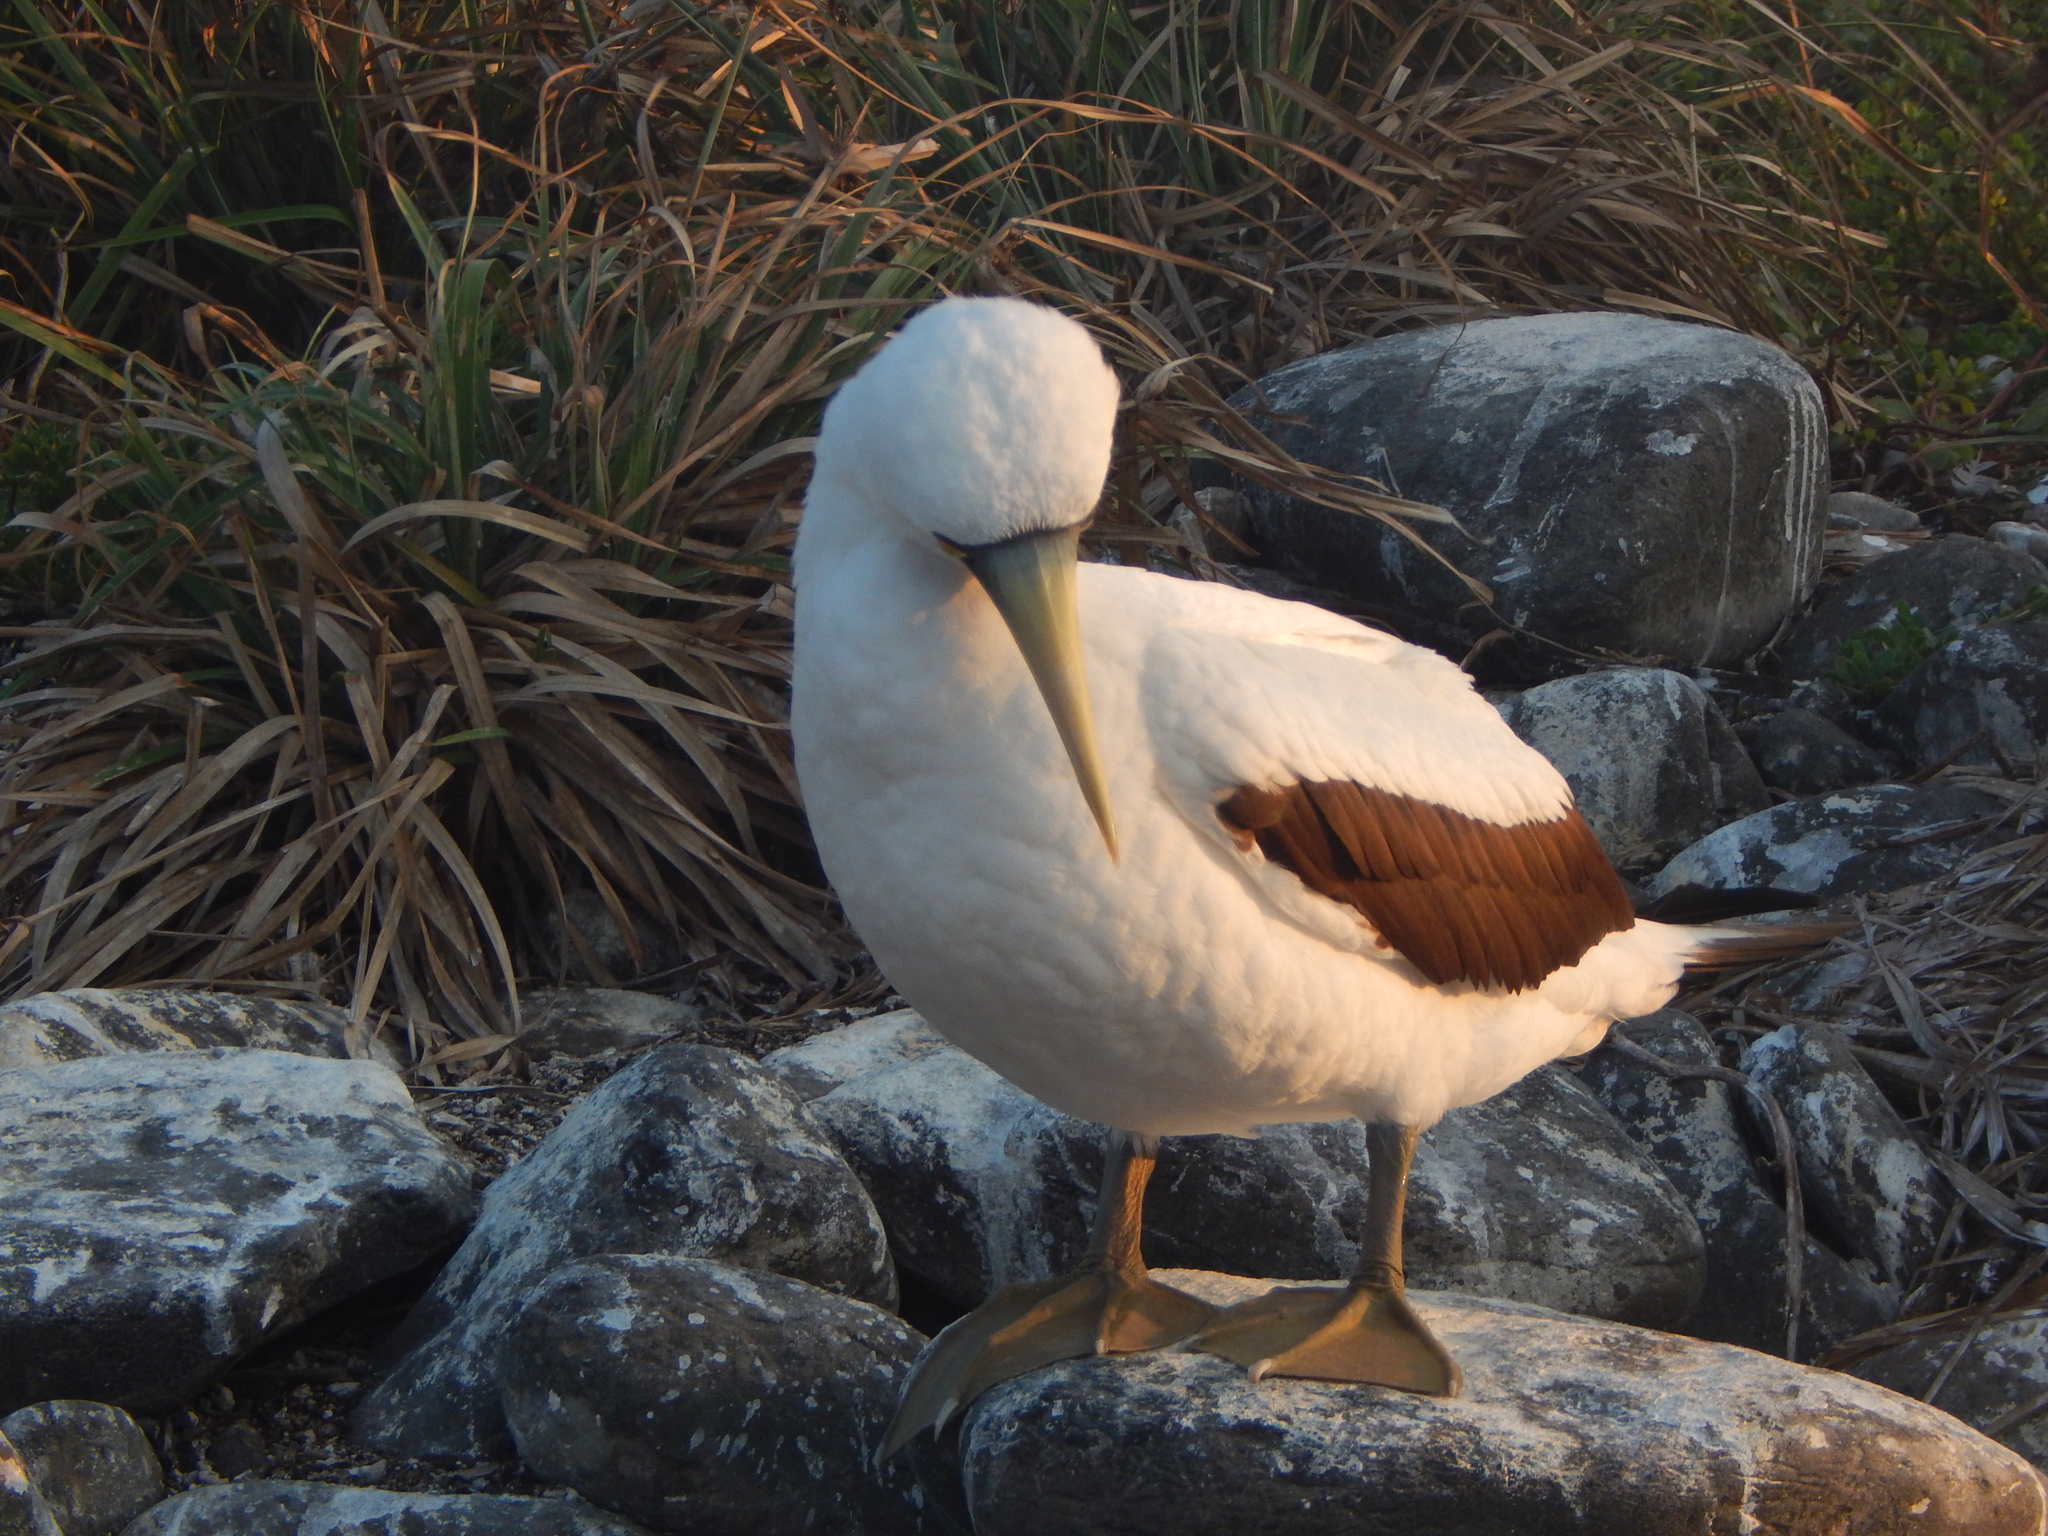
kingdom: Animalia
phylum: Chordata
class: Aves
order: Suliformes
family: Sulidae
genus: Sula
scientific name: Sula dactylatra
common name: Masked booby
